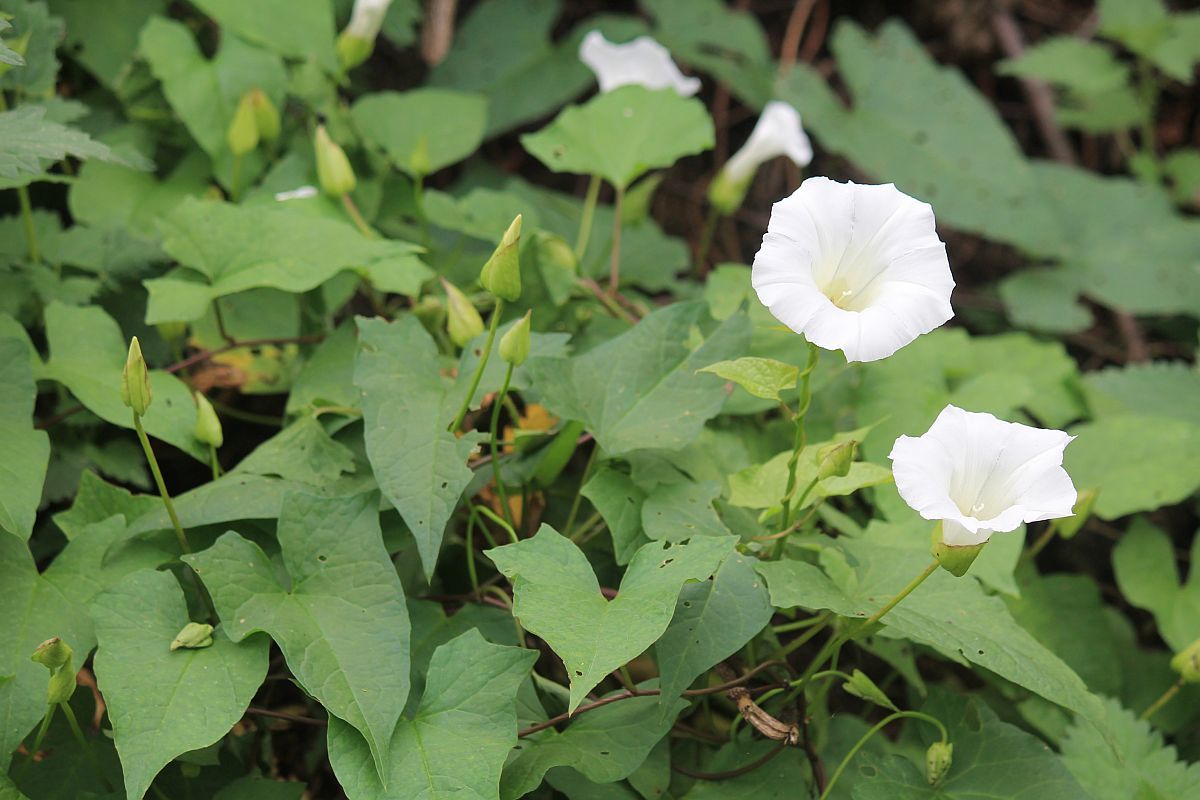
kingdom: Plantae
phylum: Tracheophyta
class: Magnoliopsida
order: Solanales
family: Convolvulaceae
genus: Calystegia
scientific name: Calystegia sepium
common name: Hedge bindweed
